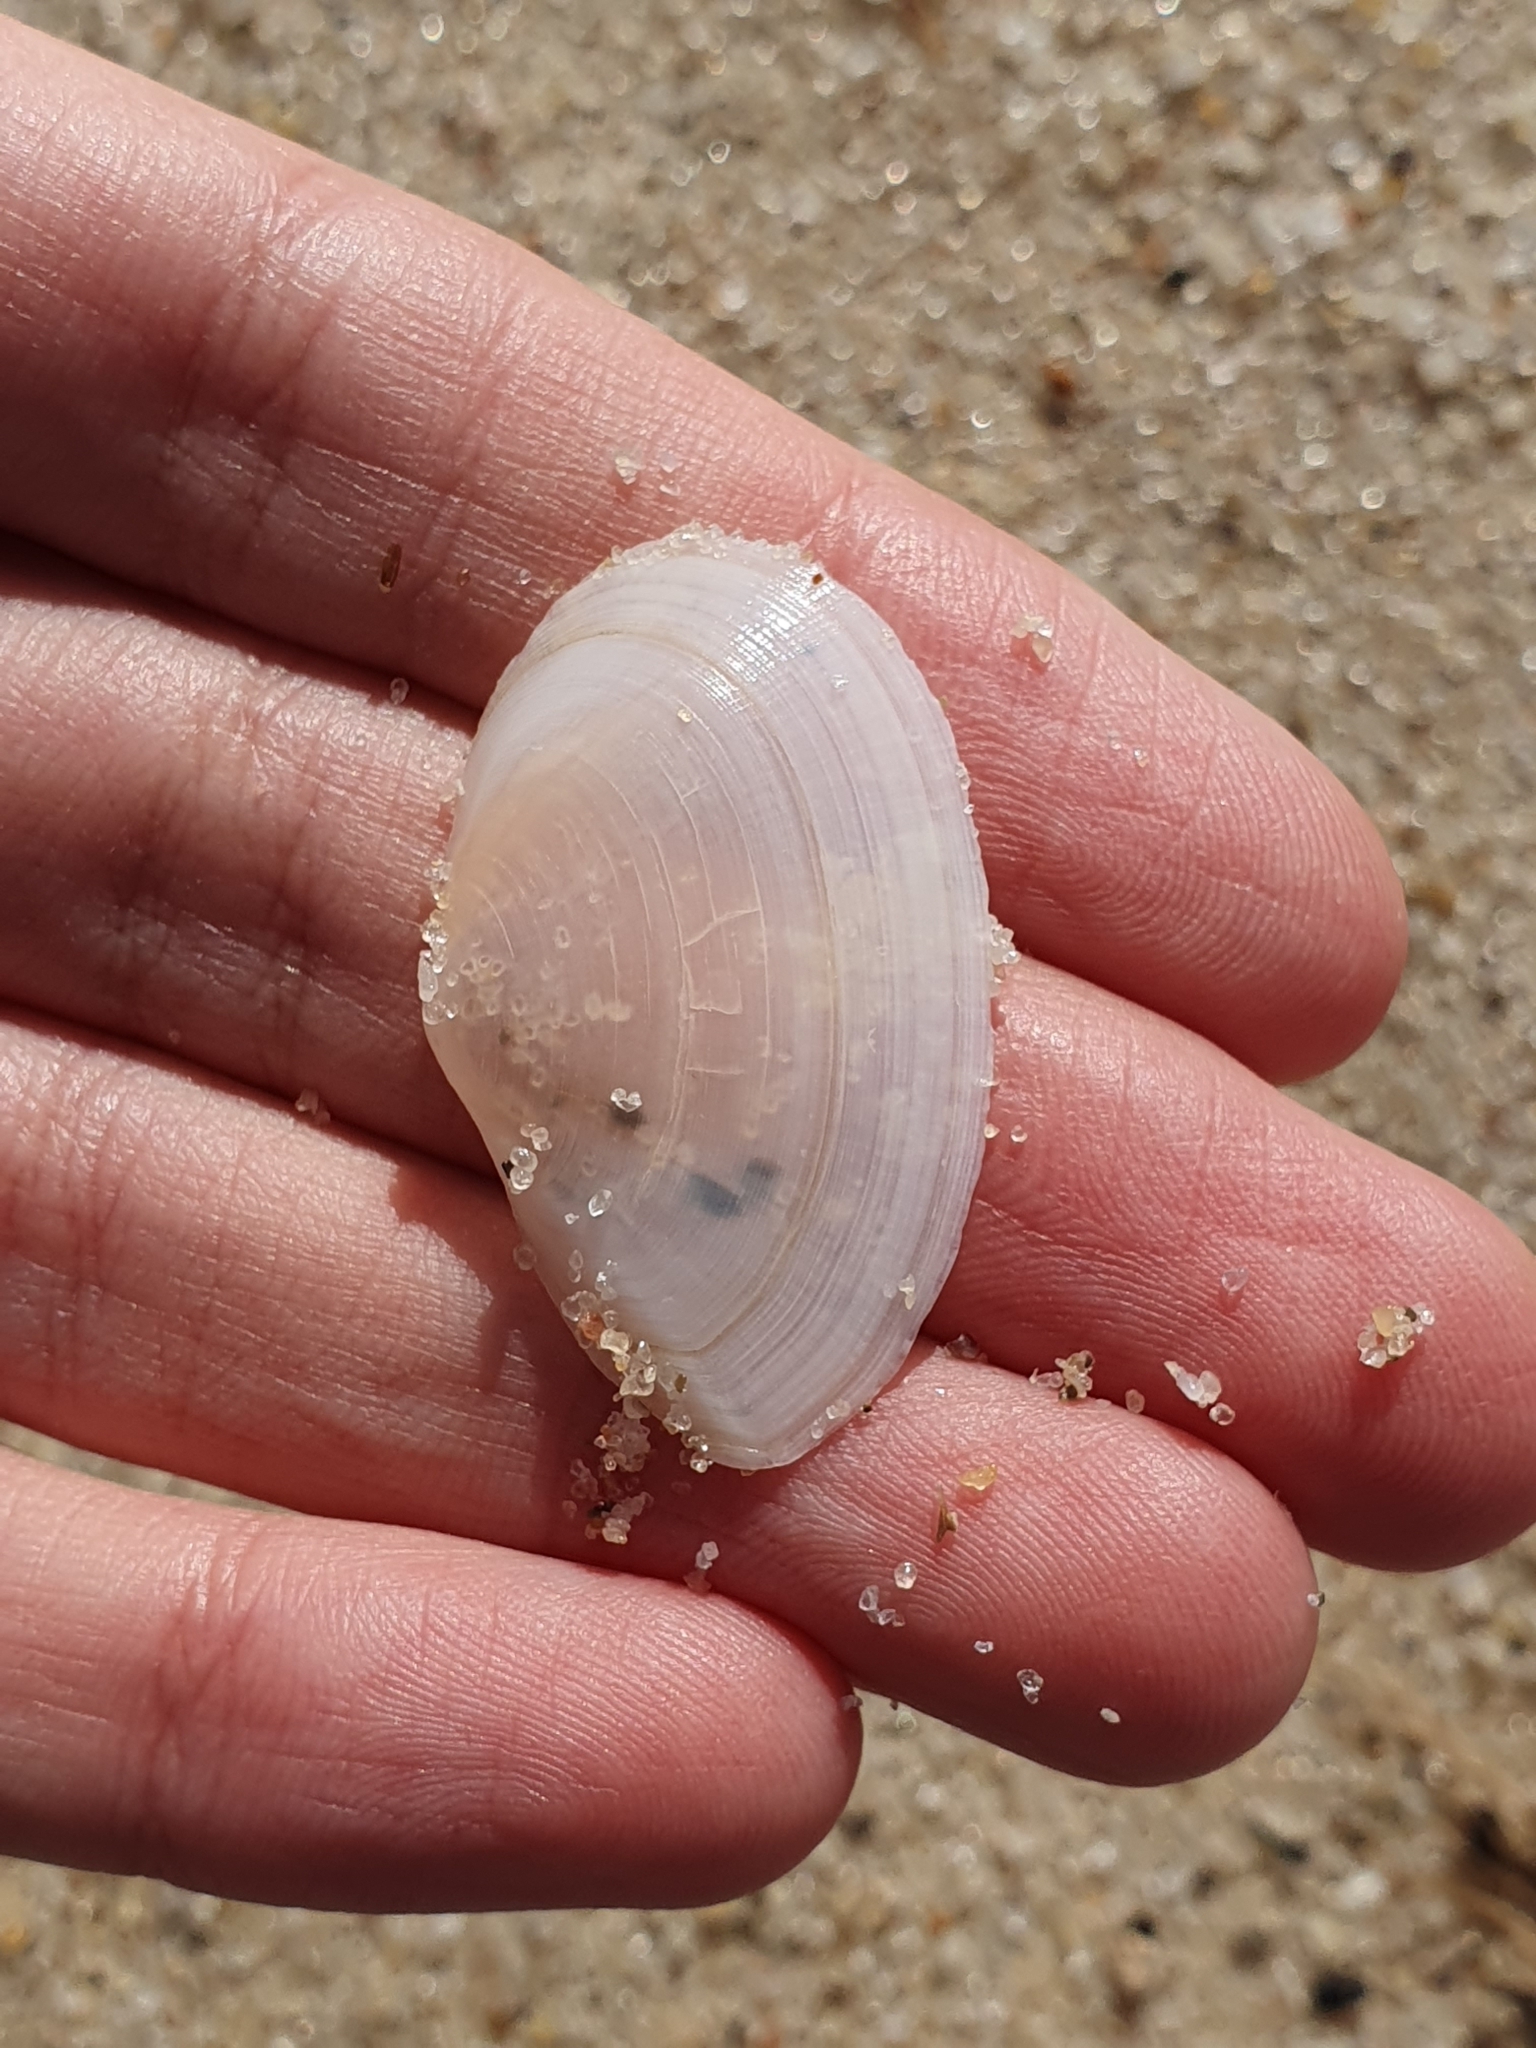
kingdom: Animalia
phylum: Mollusca
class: Bivalvia
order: Cardiida
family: Tellinidae
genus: Peronaea
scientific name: Peronaea planata
